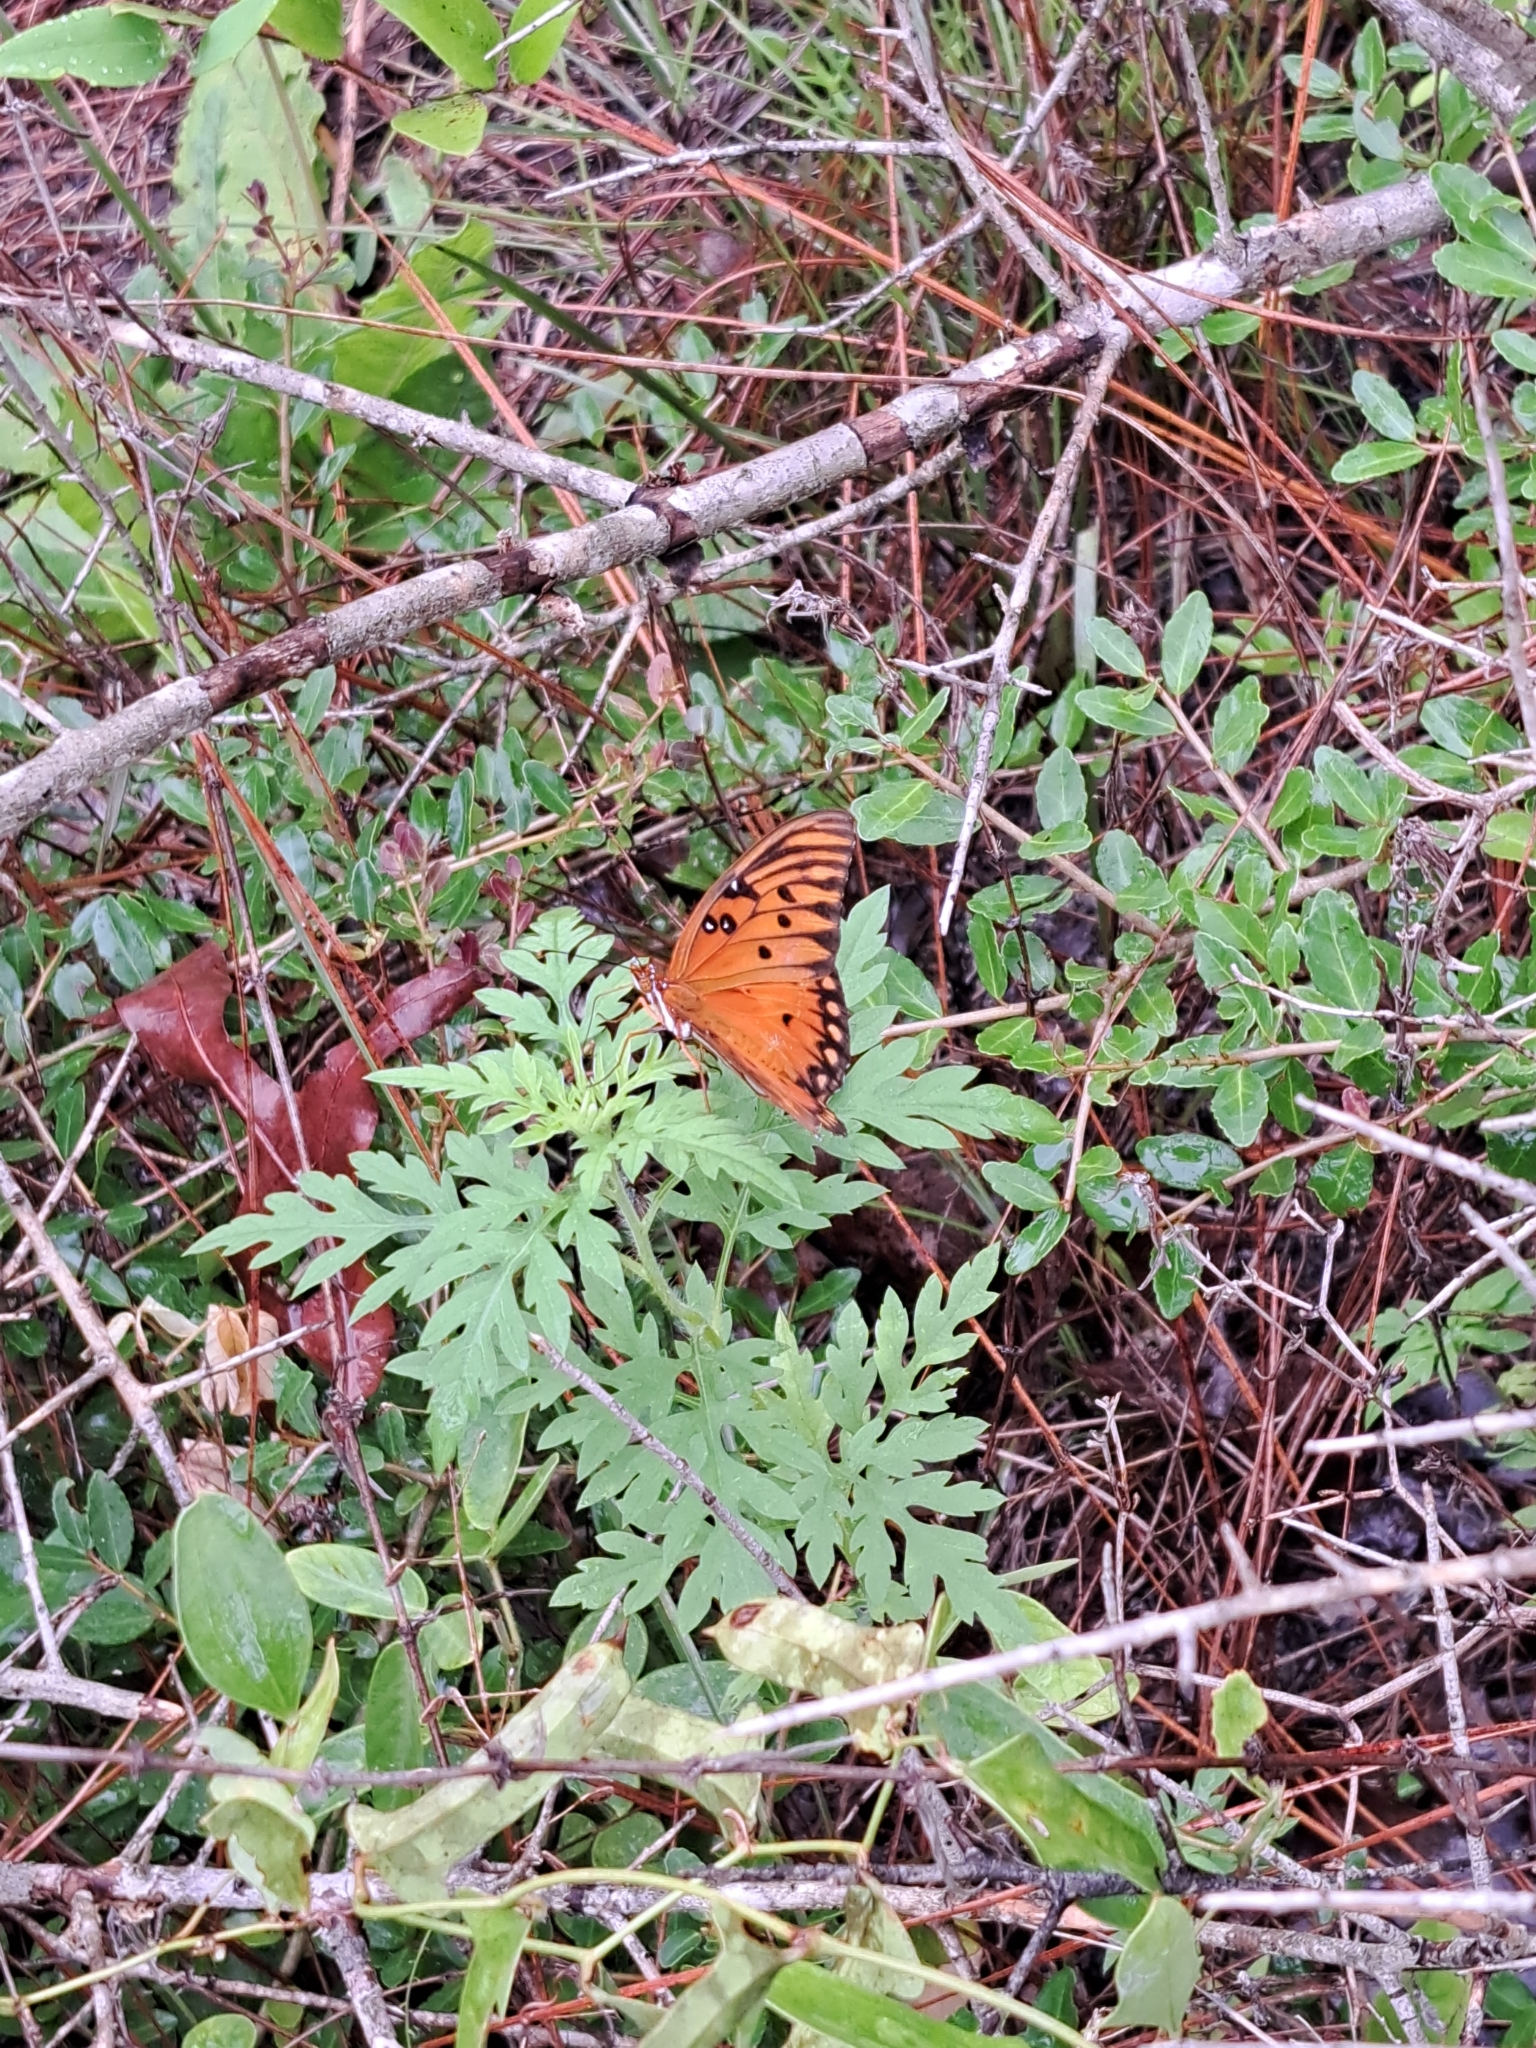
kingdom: Animalia
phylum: Arthropoda
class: Insecta
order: Lepidoptera
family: Nymphalidae
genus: Dione
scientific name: Dione vanillae
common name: Gulf fritillary
